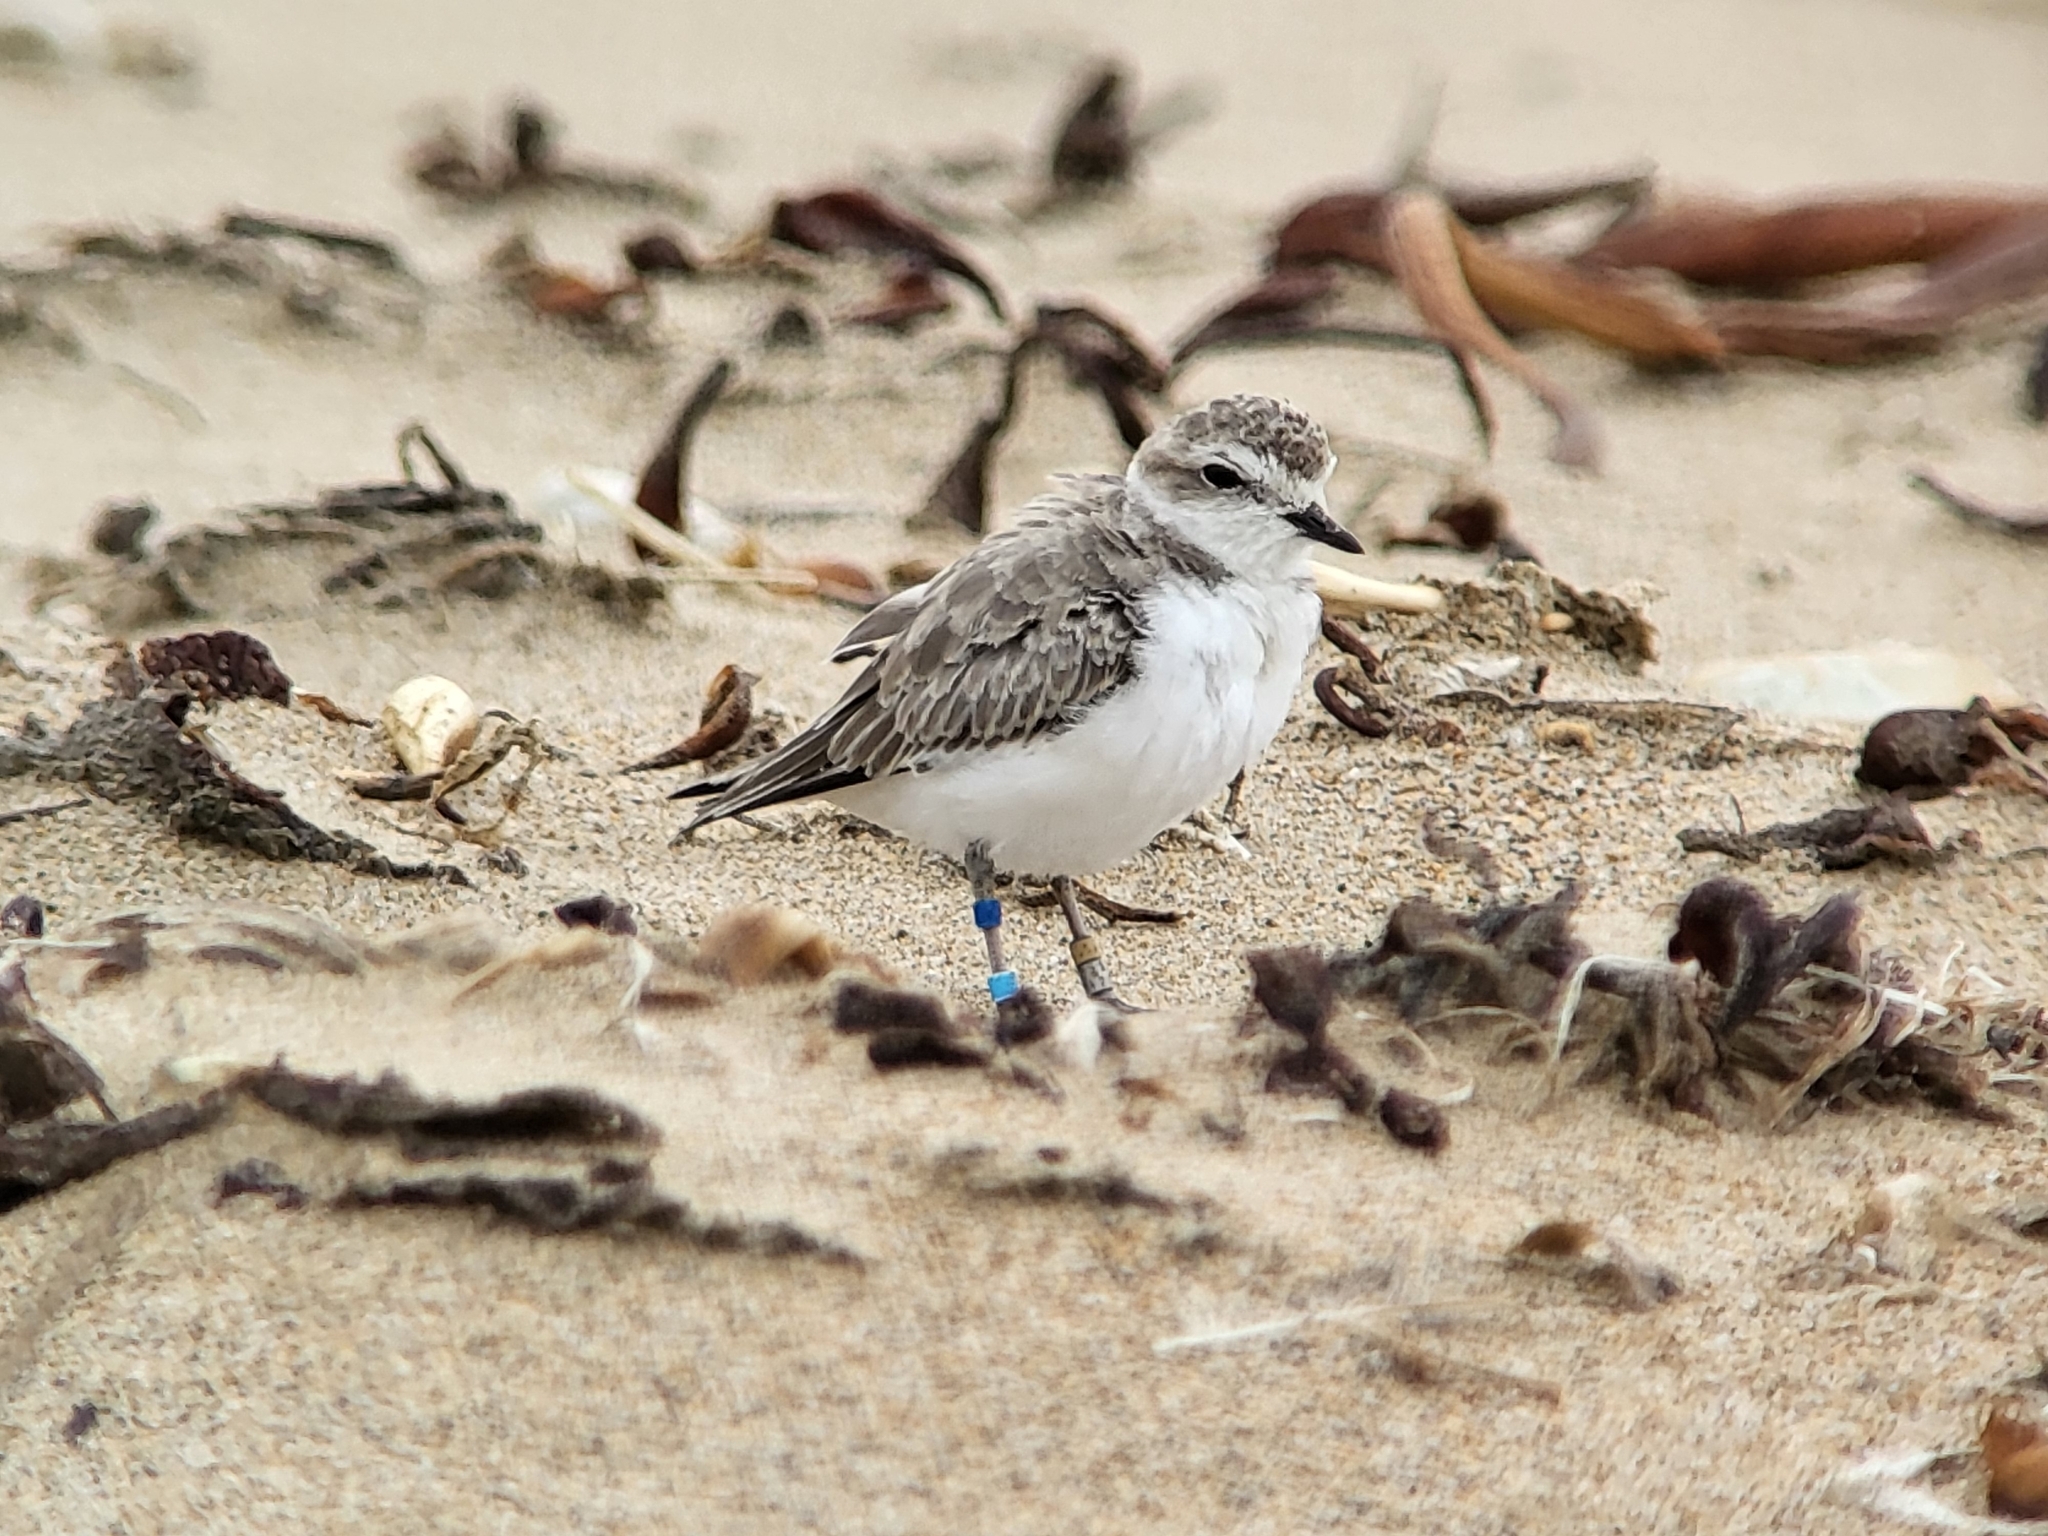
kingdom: Animalia
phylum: Chordata
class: Aves
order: Charadriiformes
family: Charadriidae
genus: Anarhynchus
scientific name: Anarhynchus
